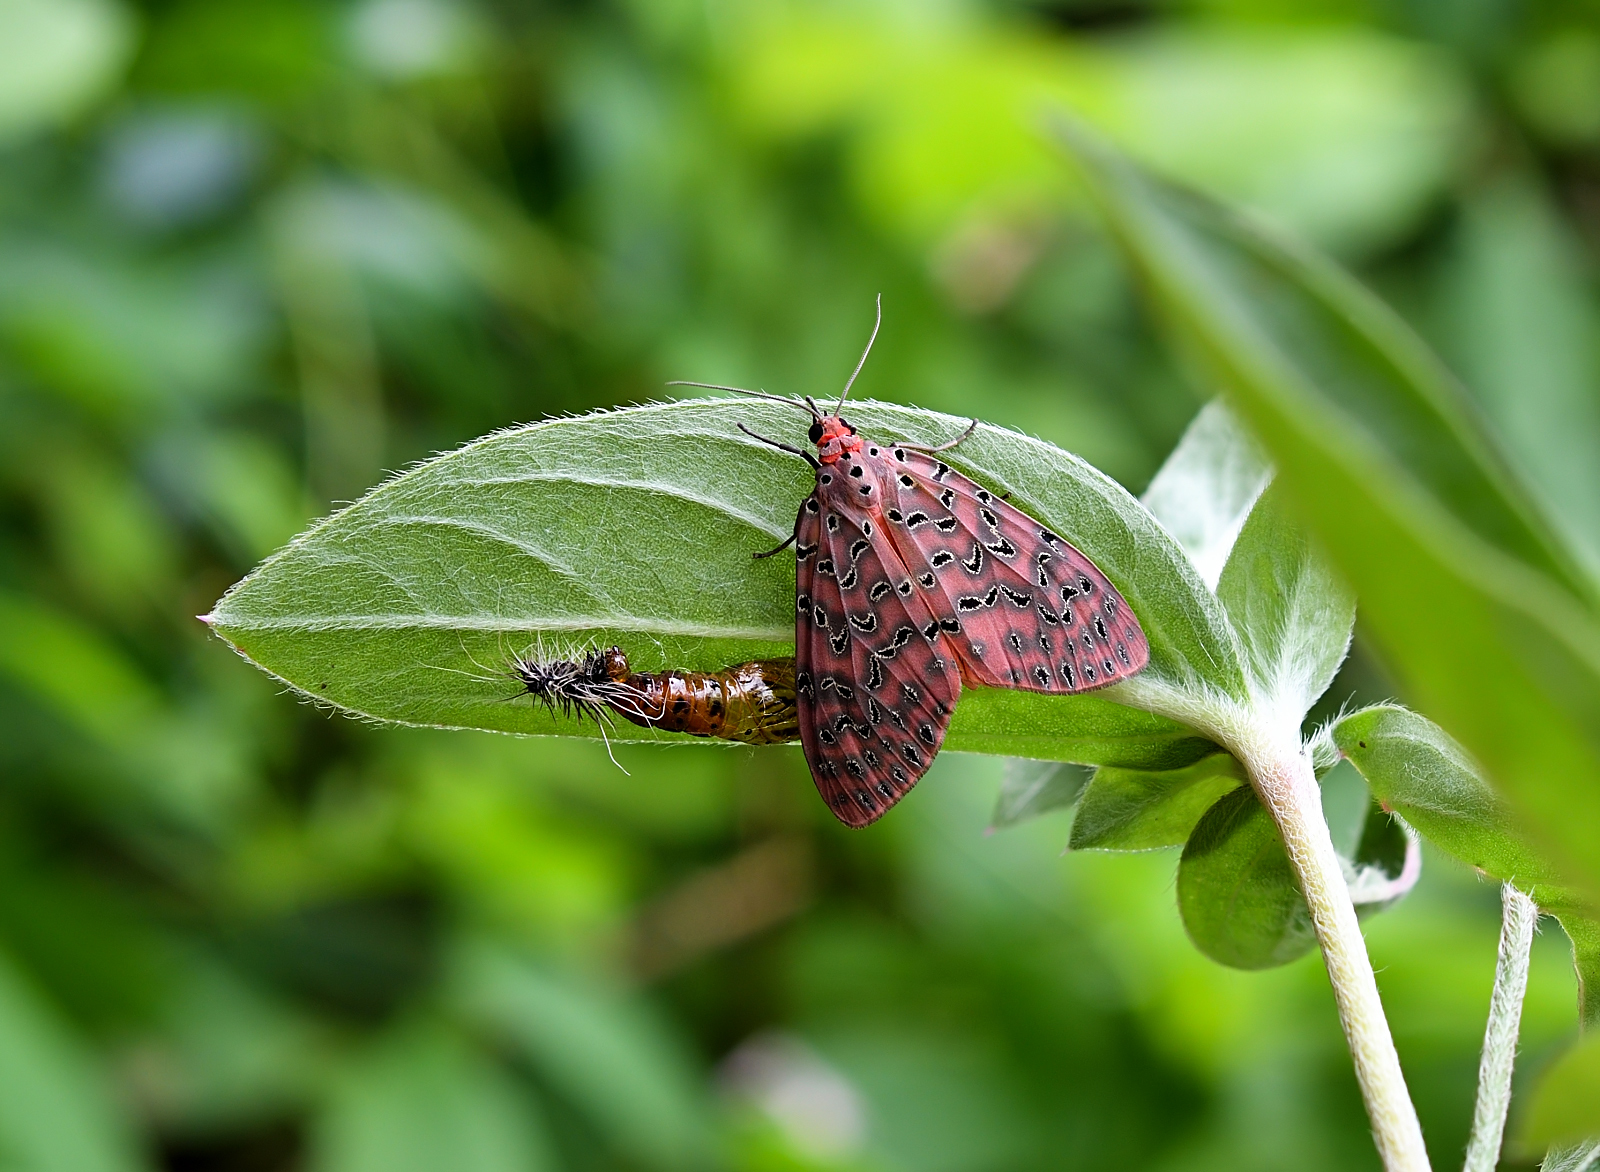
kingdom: Animalia
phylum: Arthropoda
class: Insecta
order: Lepidoptera
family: Erebidae
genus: Mangina
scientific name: Mangina argus
